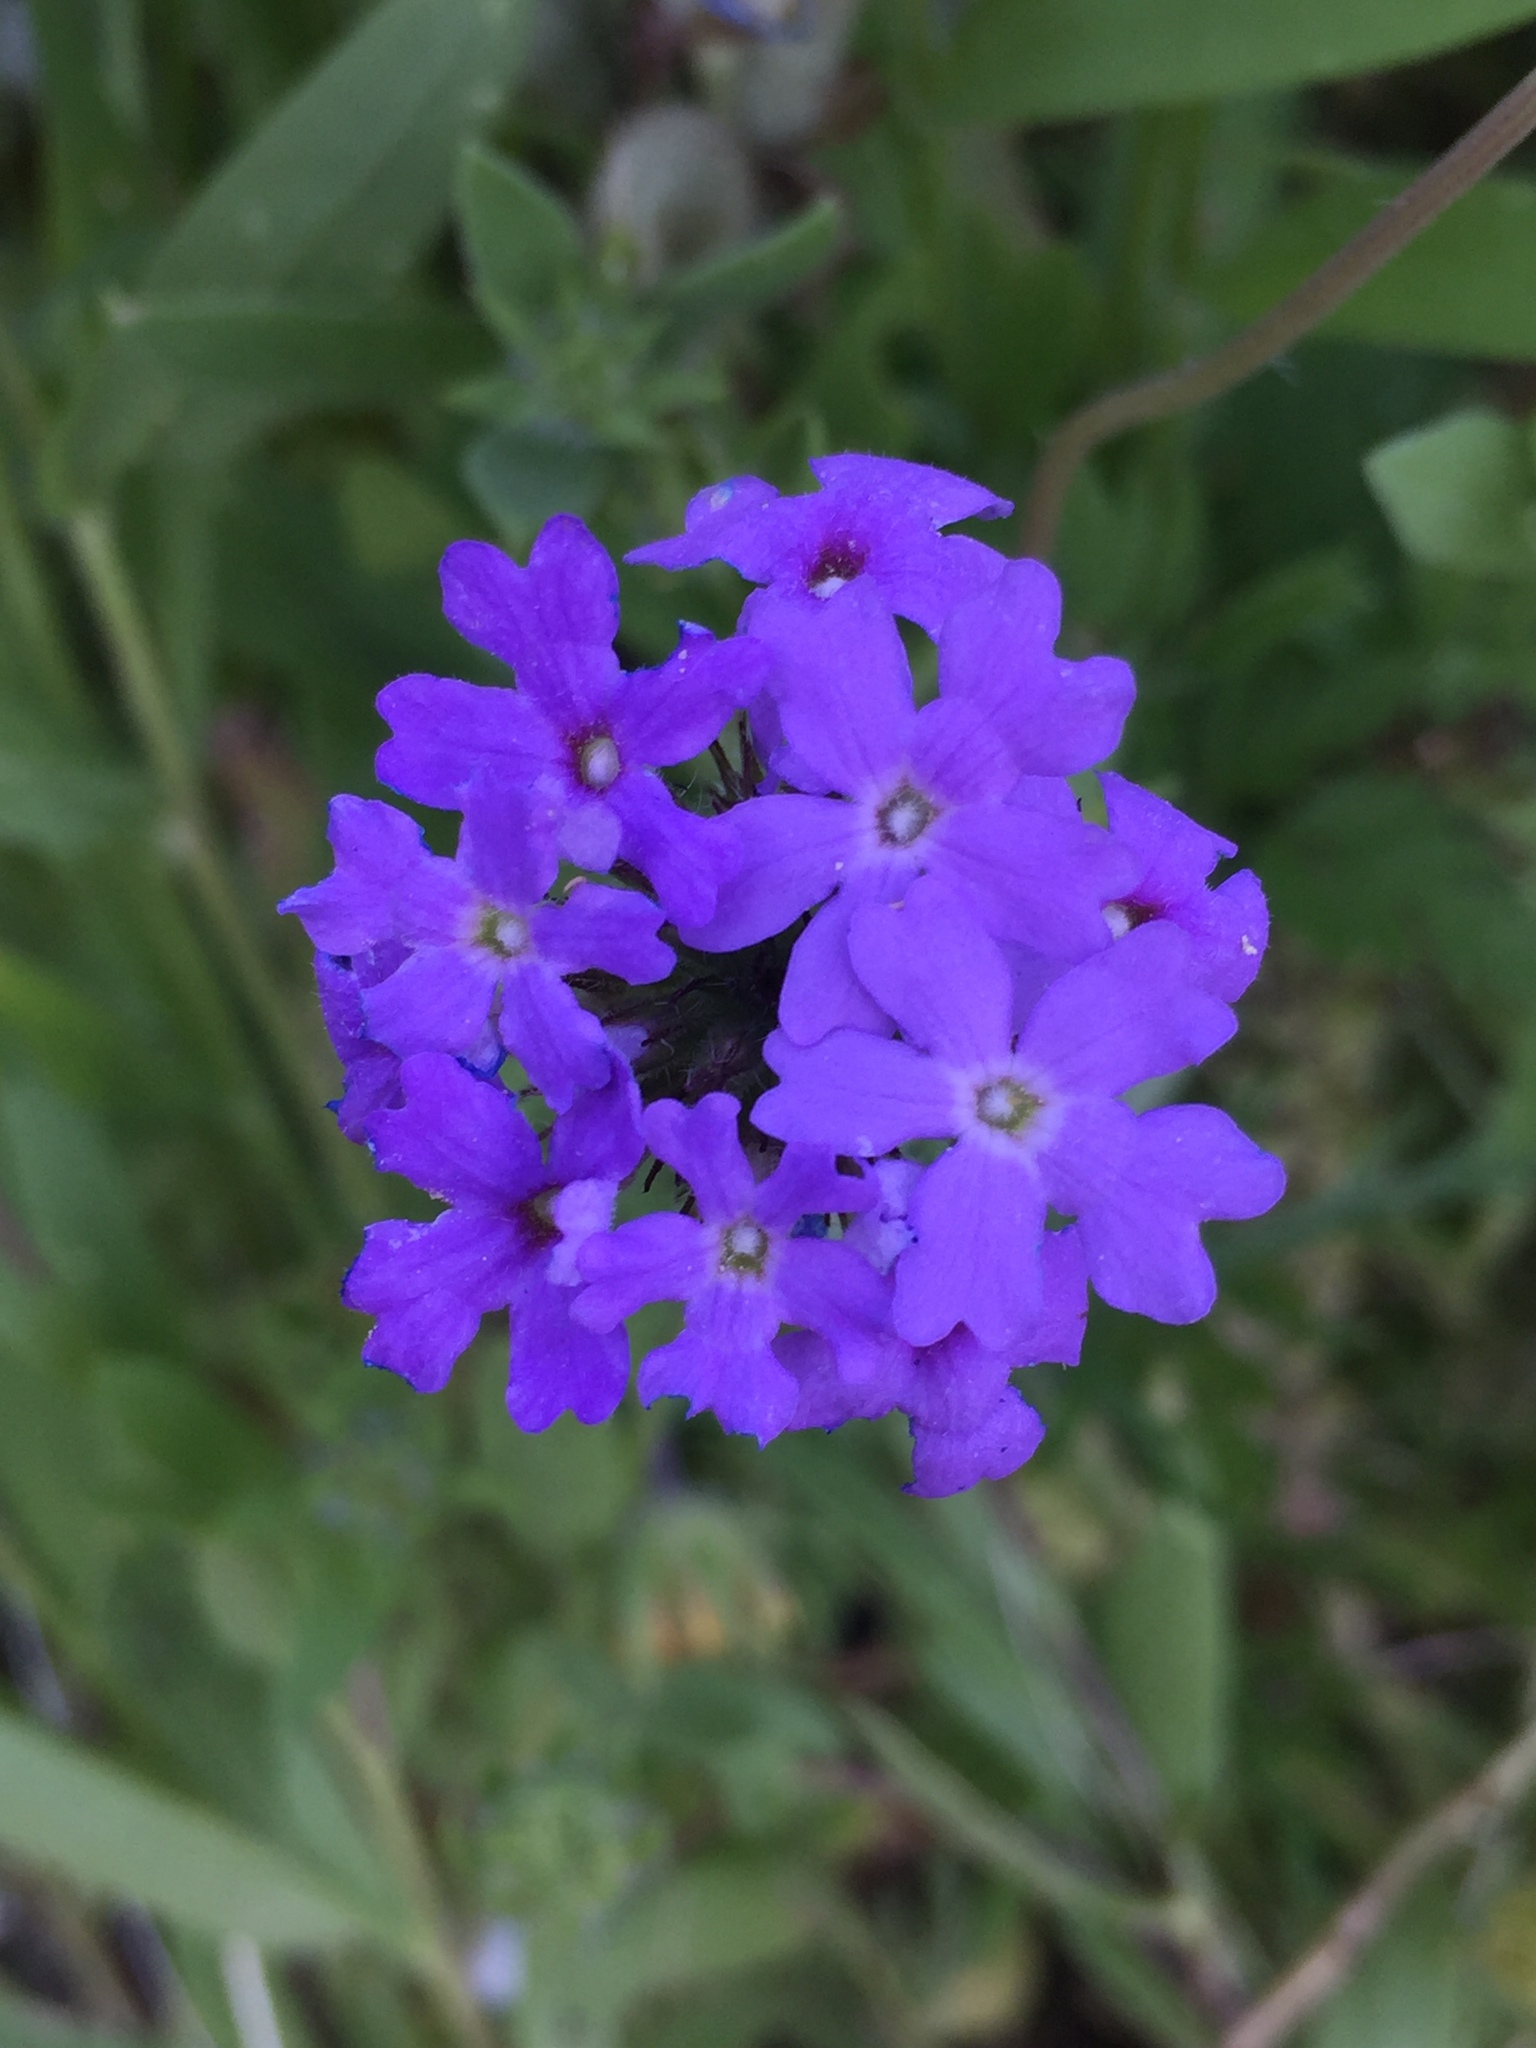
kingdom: Plantae
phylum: Tracheophyta
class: Magnoliopsida
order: Lamiales
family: Verbenaceae
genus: Verbena
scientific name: Verbena bipinnatifida
